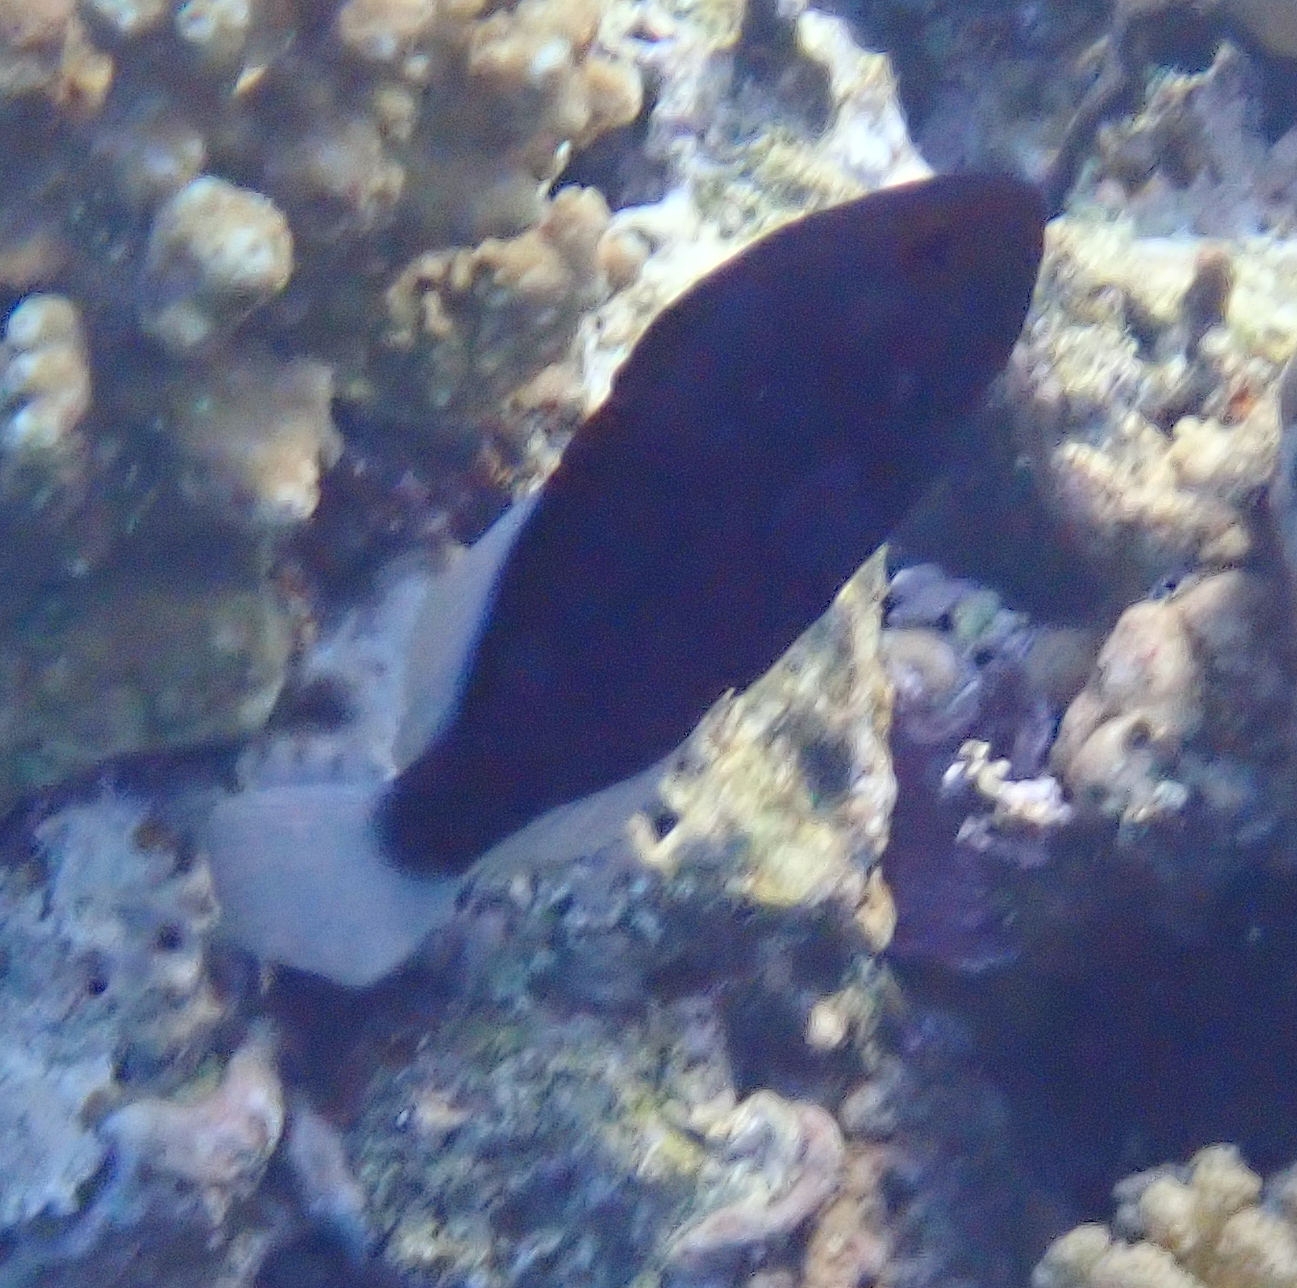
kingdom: Animalia
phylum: Chordata
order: Perciformes
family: Serranidae
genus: Diploprion
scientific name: Diploprion drachi
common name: Yellowface soapfish
